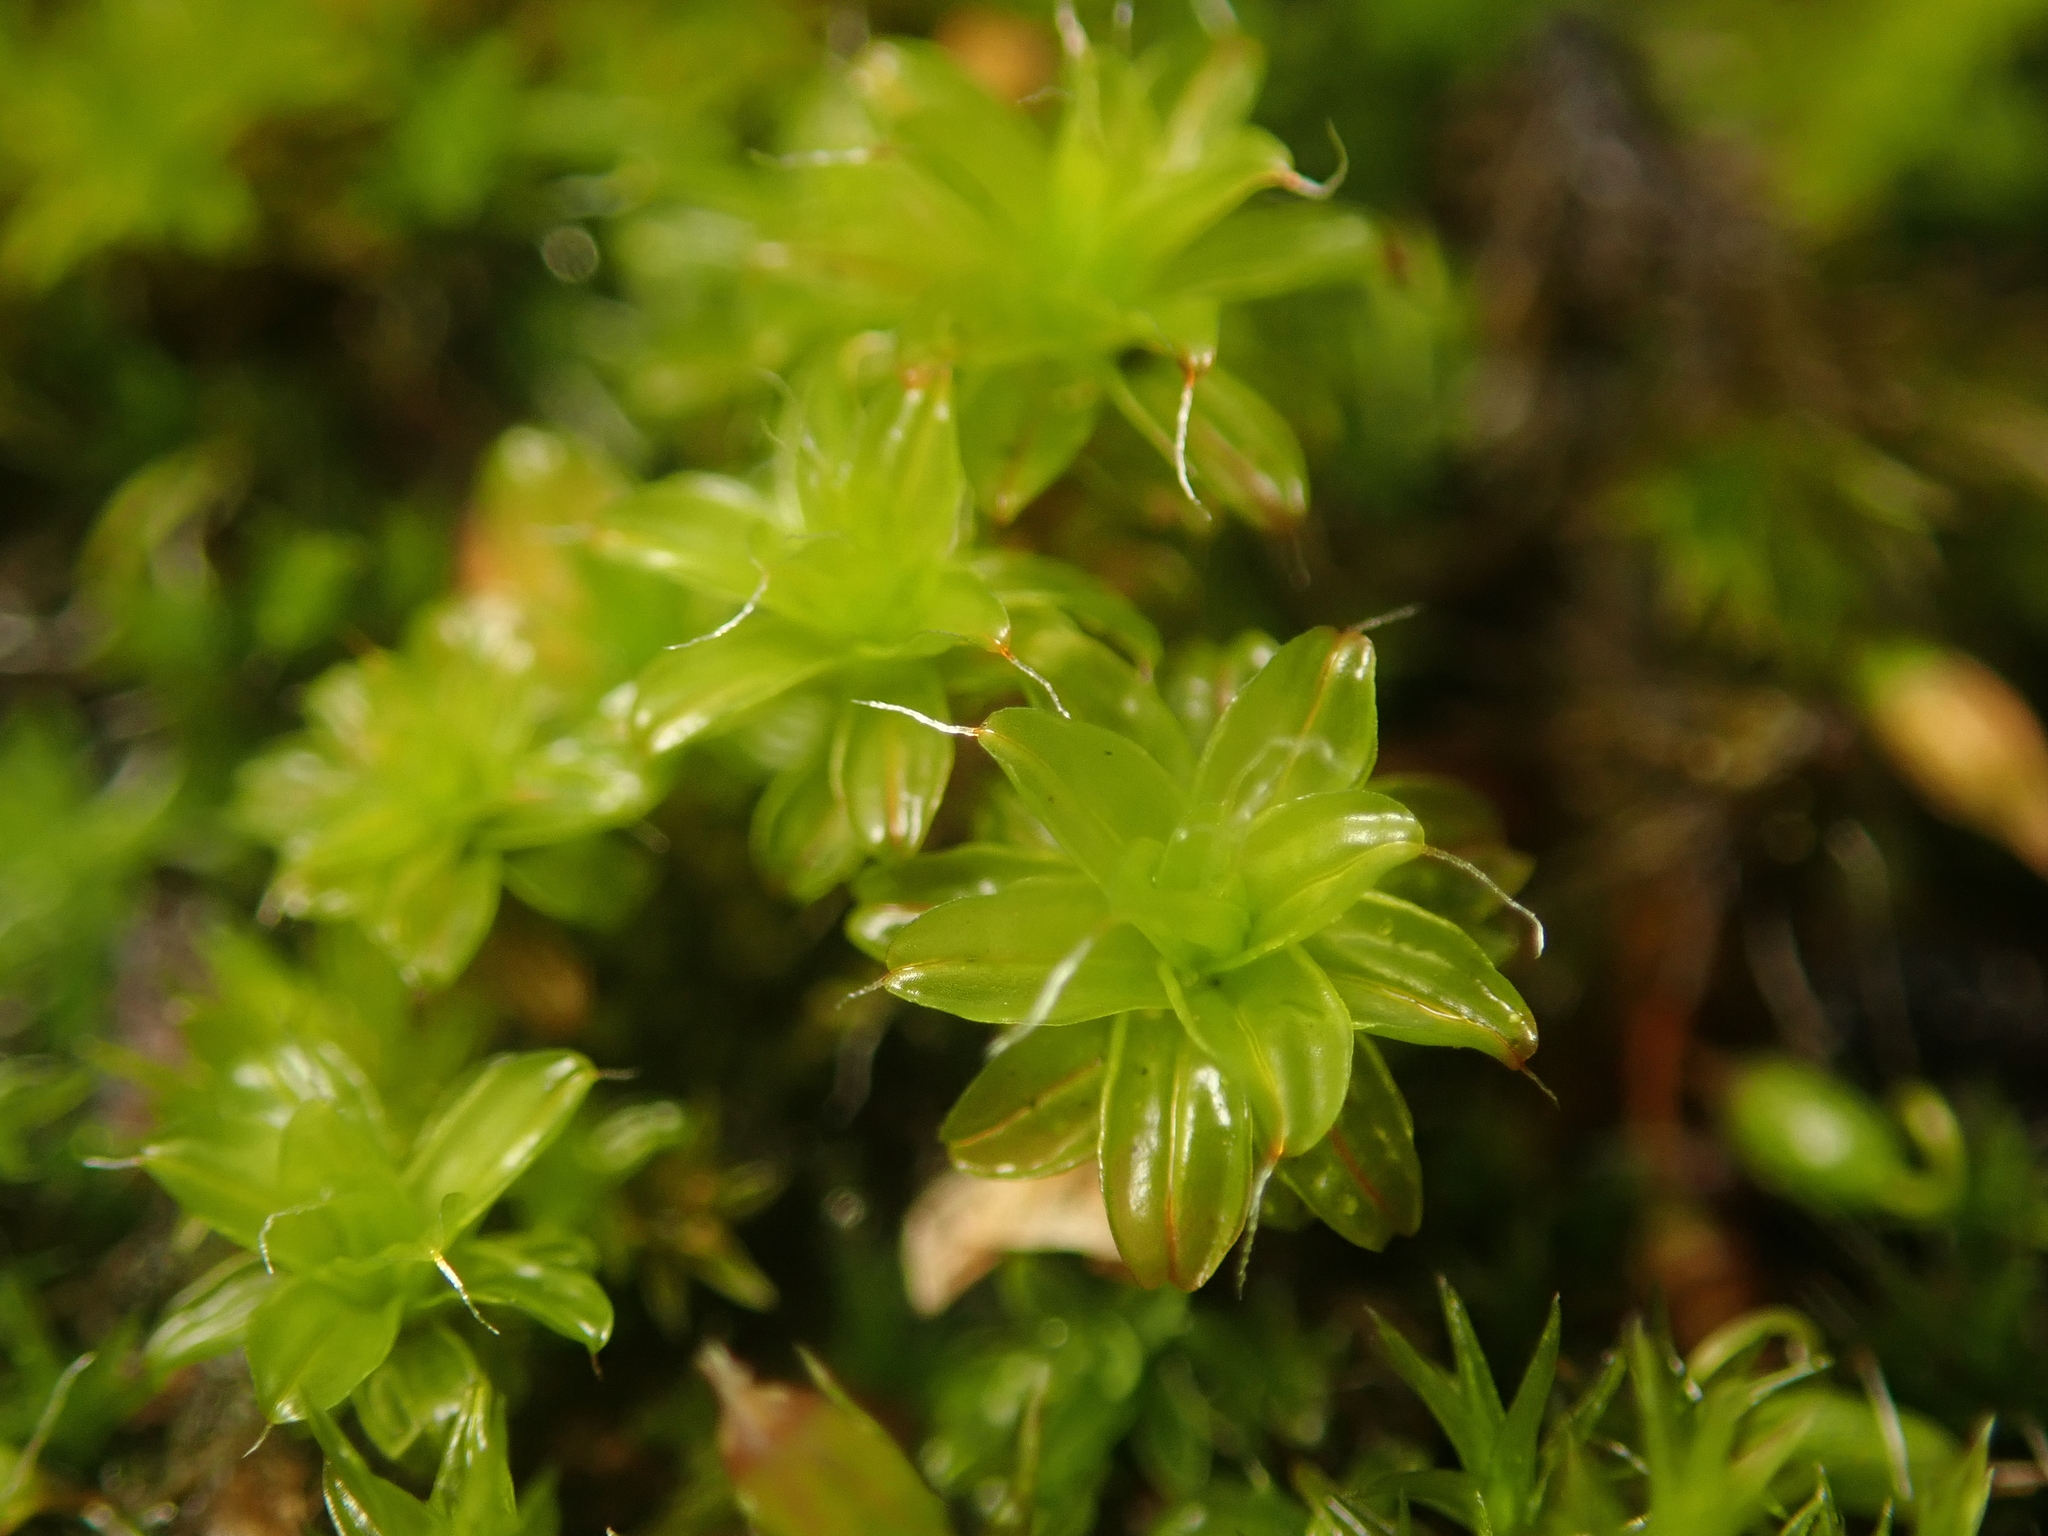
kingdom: Plantae
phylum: Bryophyta
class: Bryopsida
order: Pottiales
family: Pottiaceae
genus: Syntrichia
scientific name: Syntrichia ruralis
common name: Sidewalk screw moss
